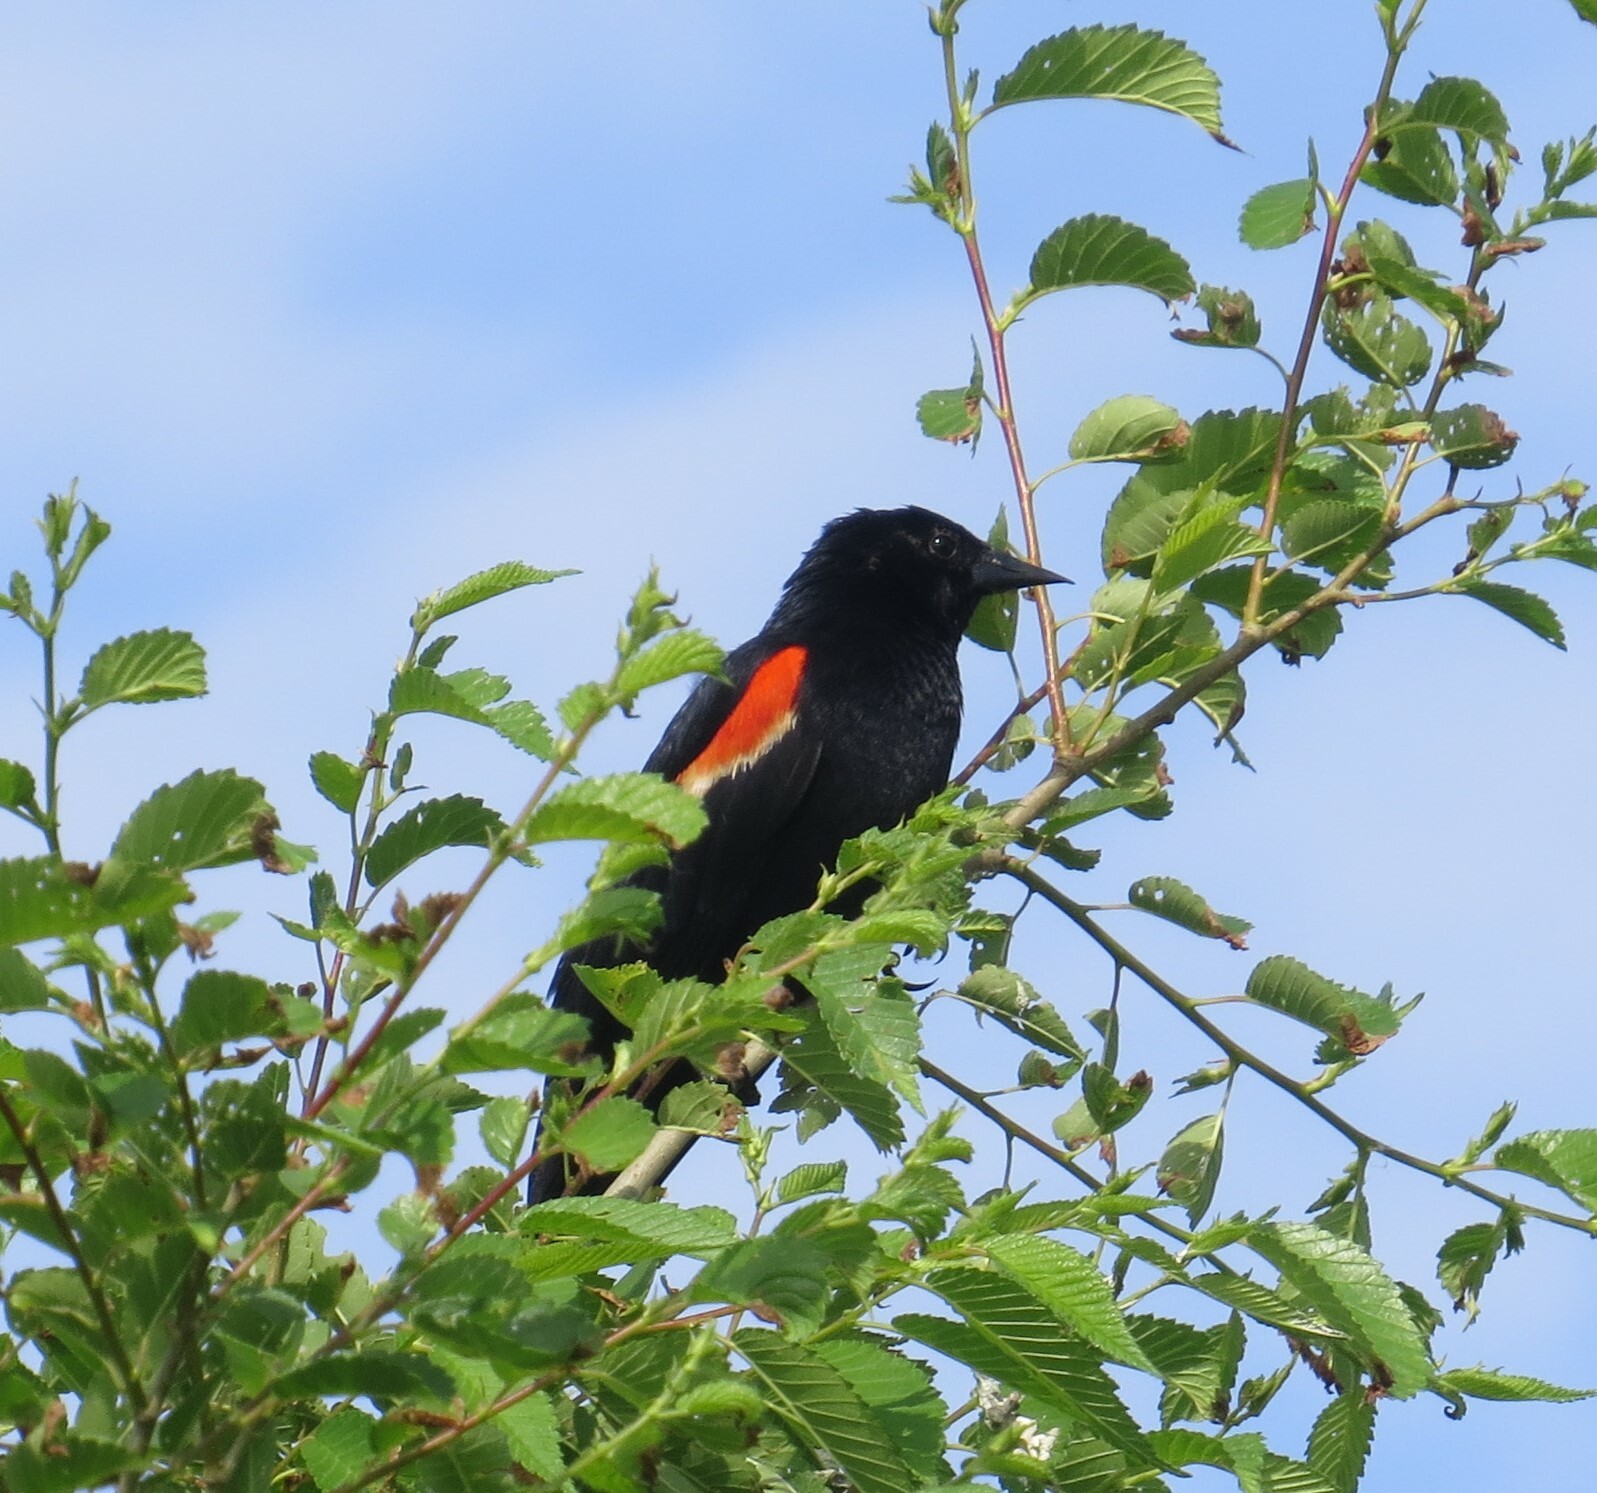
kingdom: Animalia
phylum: Chordata
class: Aves
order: Passeriformes
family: Icteridae
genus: Agelaius
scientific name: Agelaius phoeniceus
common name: Red-winged blackbird
